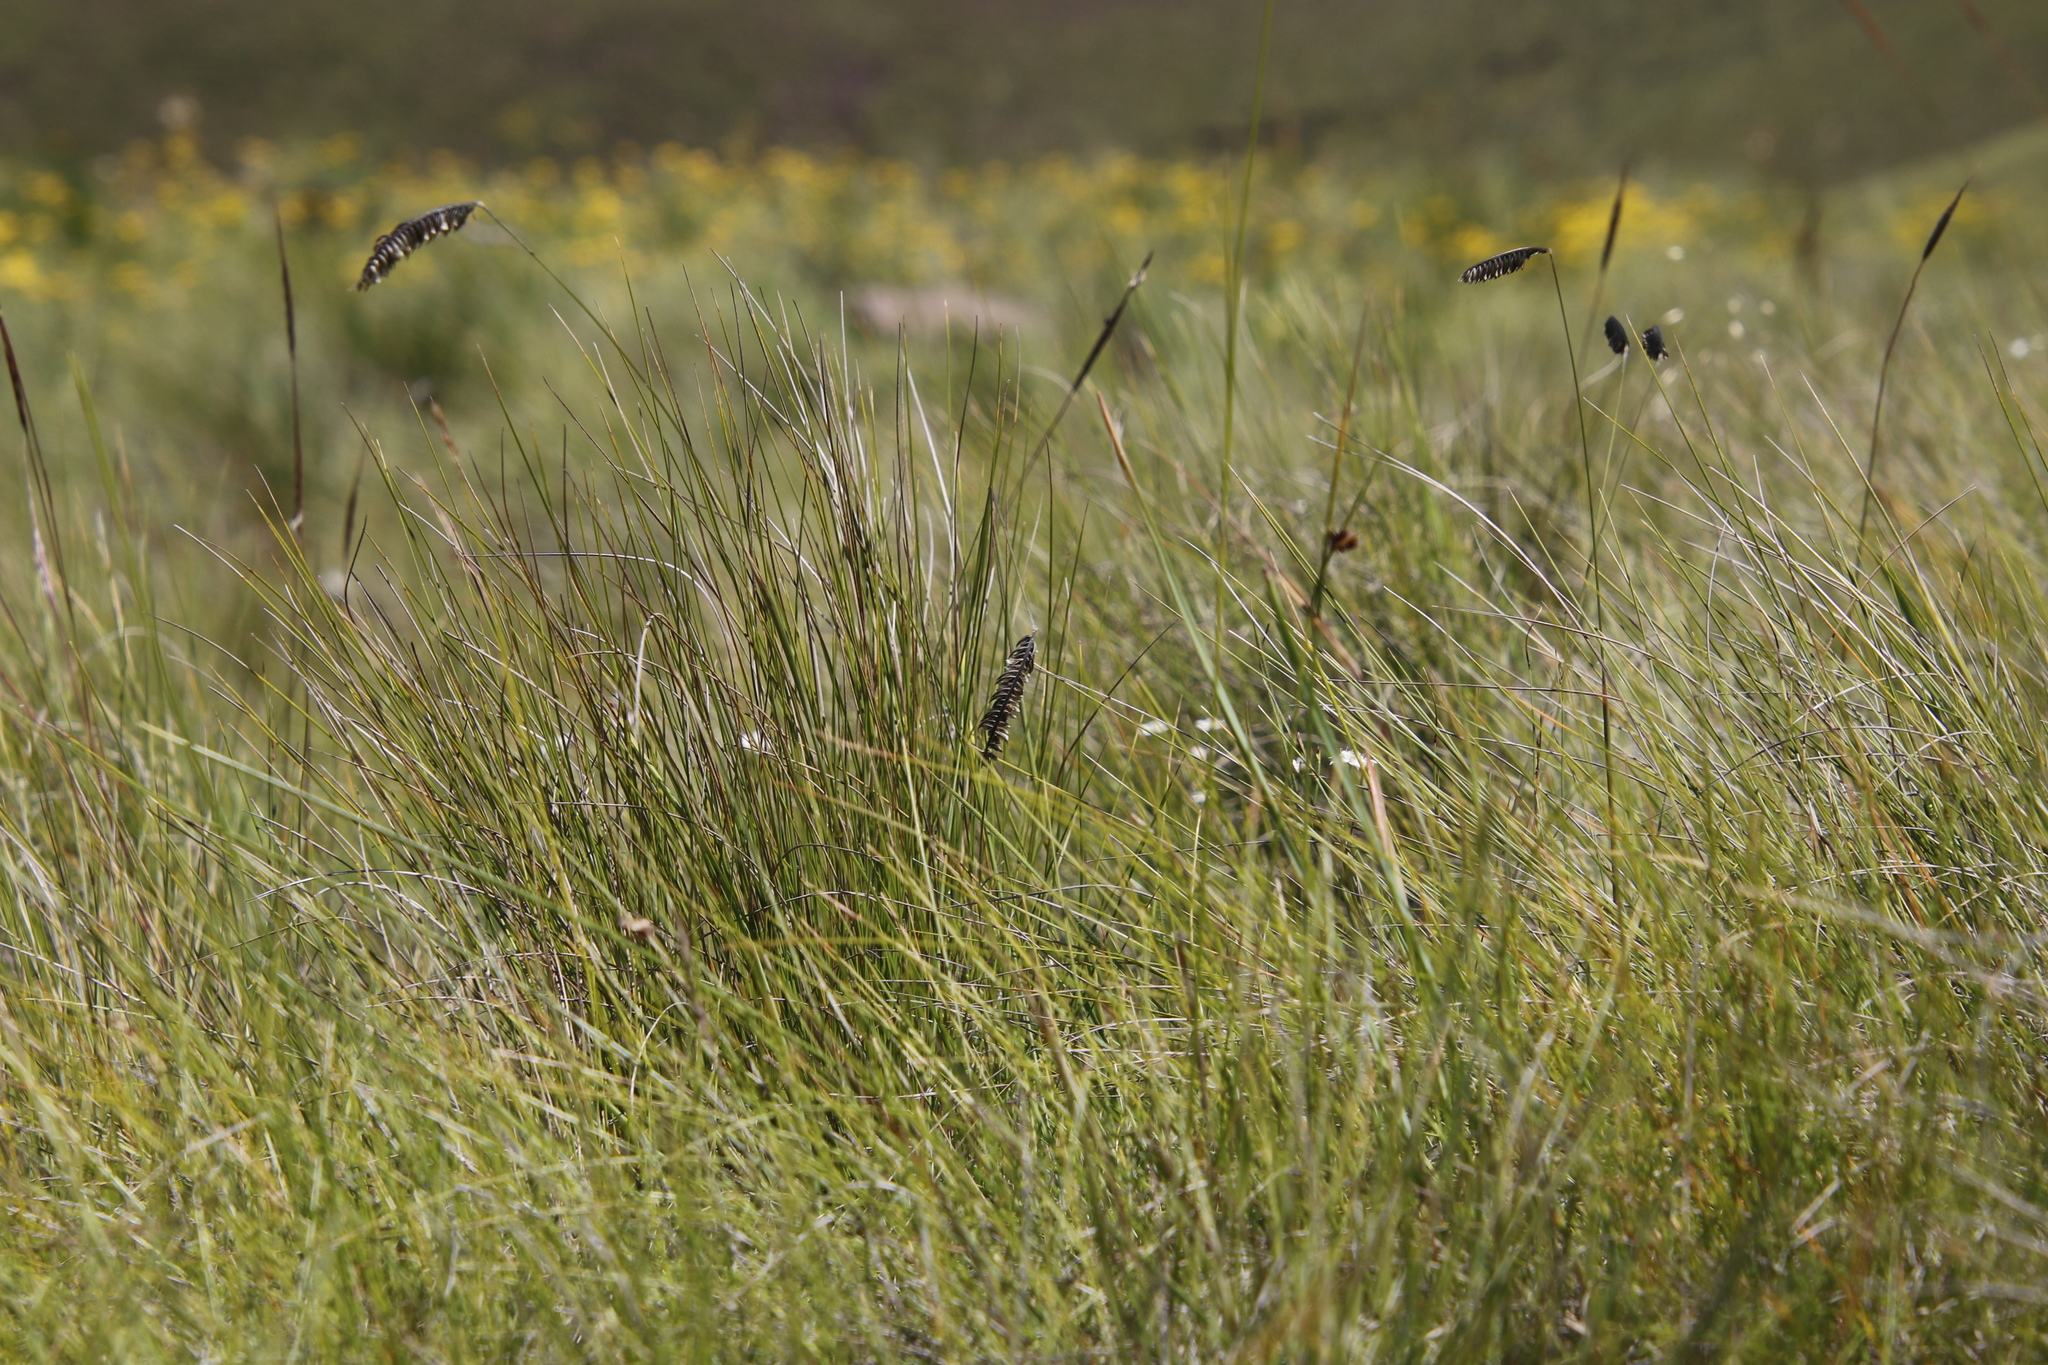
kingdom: Plantae
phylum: Tracheophyta
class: Liliopsida
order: Poales
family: Poaceae
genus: Harpochloa
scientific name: Harpochloa falx
